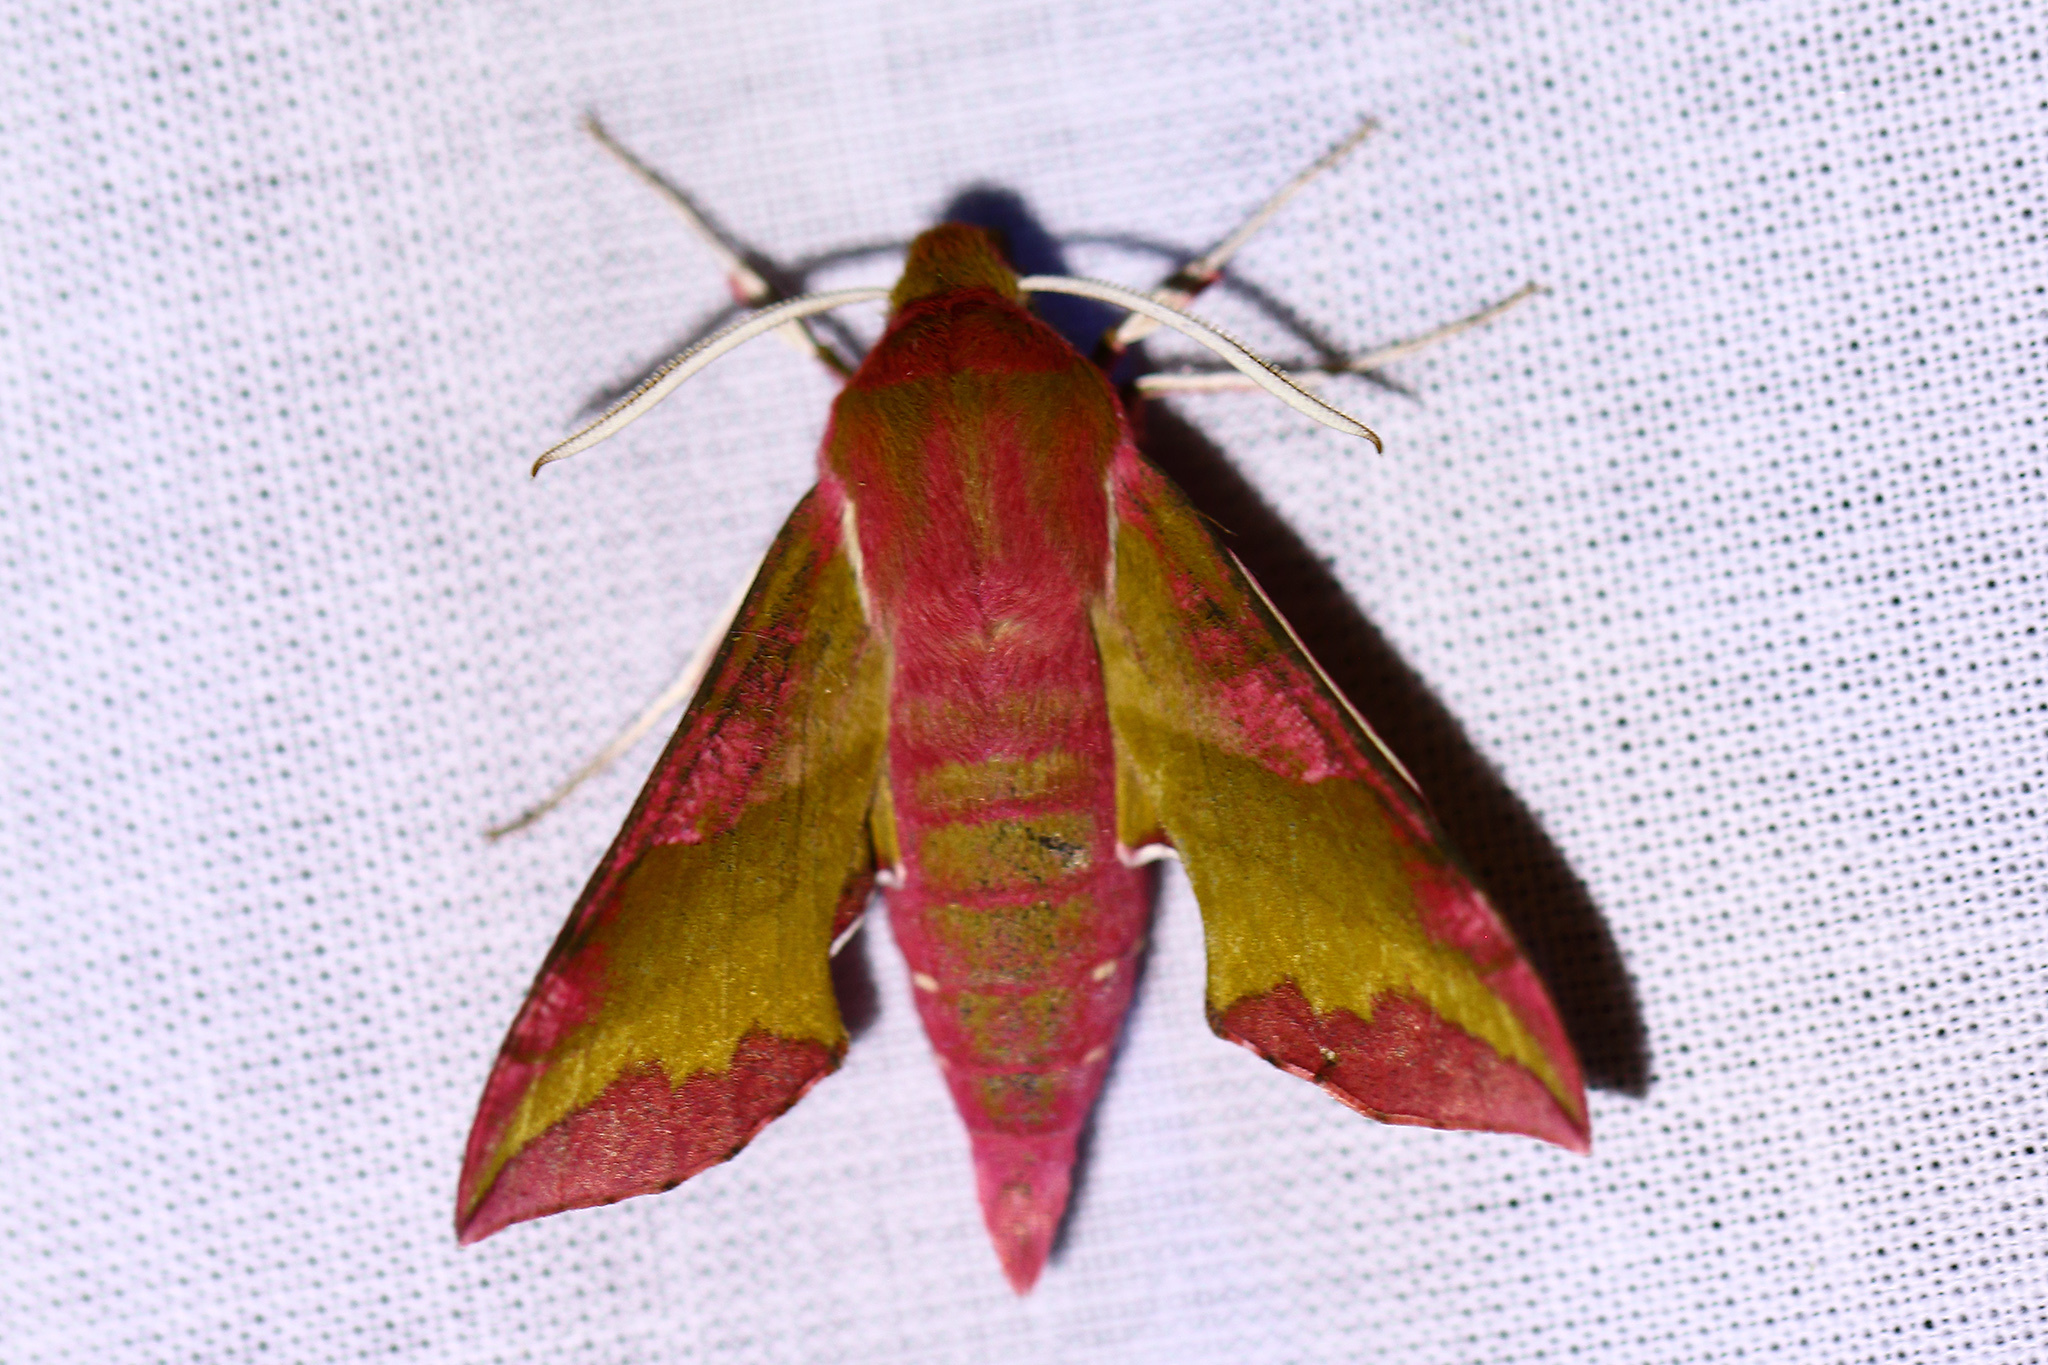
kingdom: Animalia
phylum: Arthropoda
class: Insecta
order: Lepidoptera
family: Sphingidae
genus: Deilephila
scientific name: Deilephila porcellus
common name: Small elephant hawk-moth
